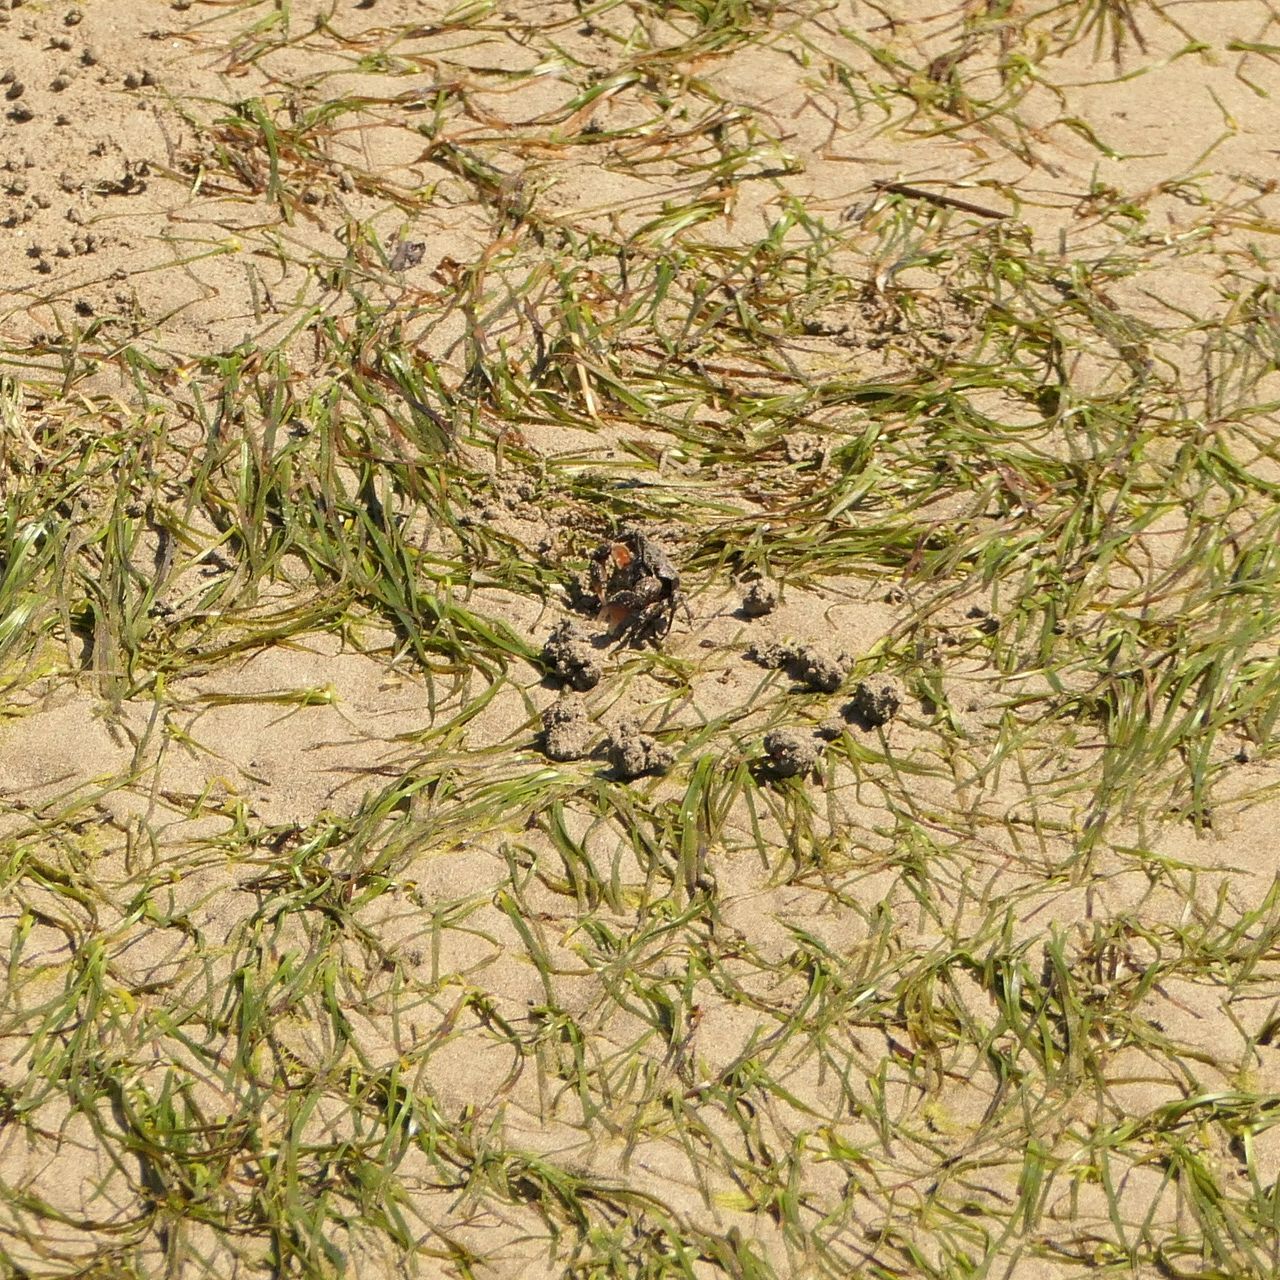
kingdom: Animalia
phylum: Arthropoda
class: Malacostraca
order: Decapoda
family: Heloeciidae
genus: Heloecius
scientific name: Heloecius cordiformis
